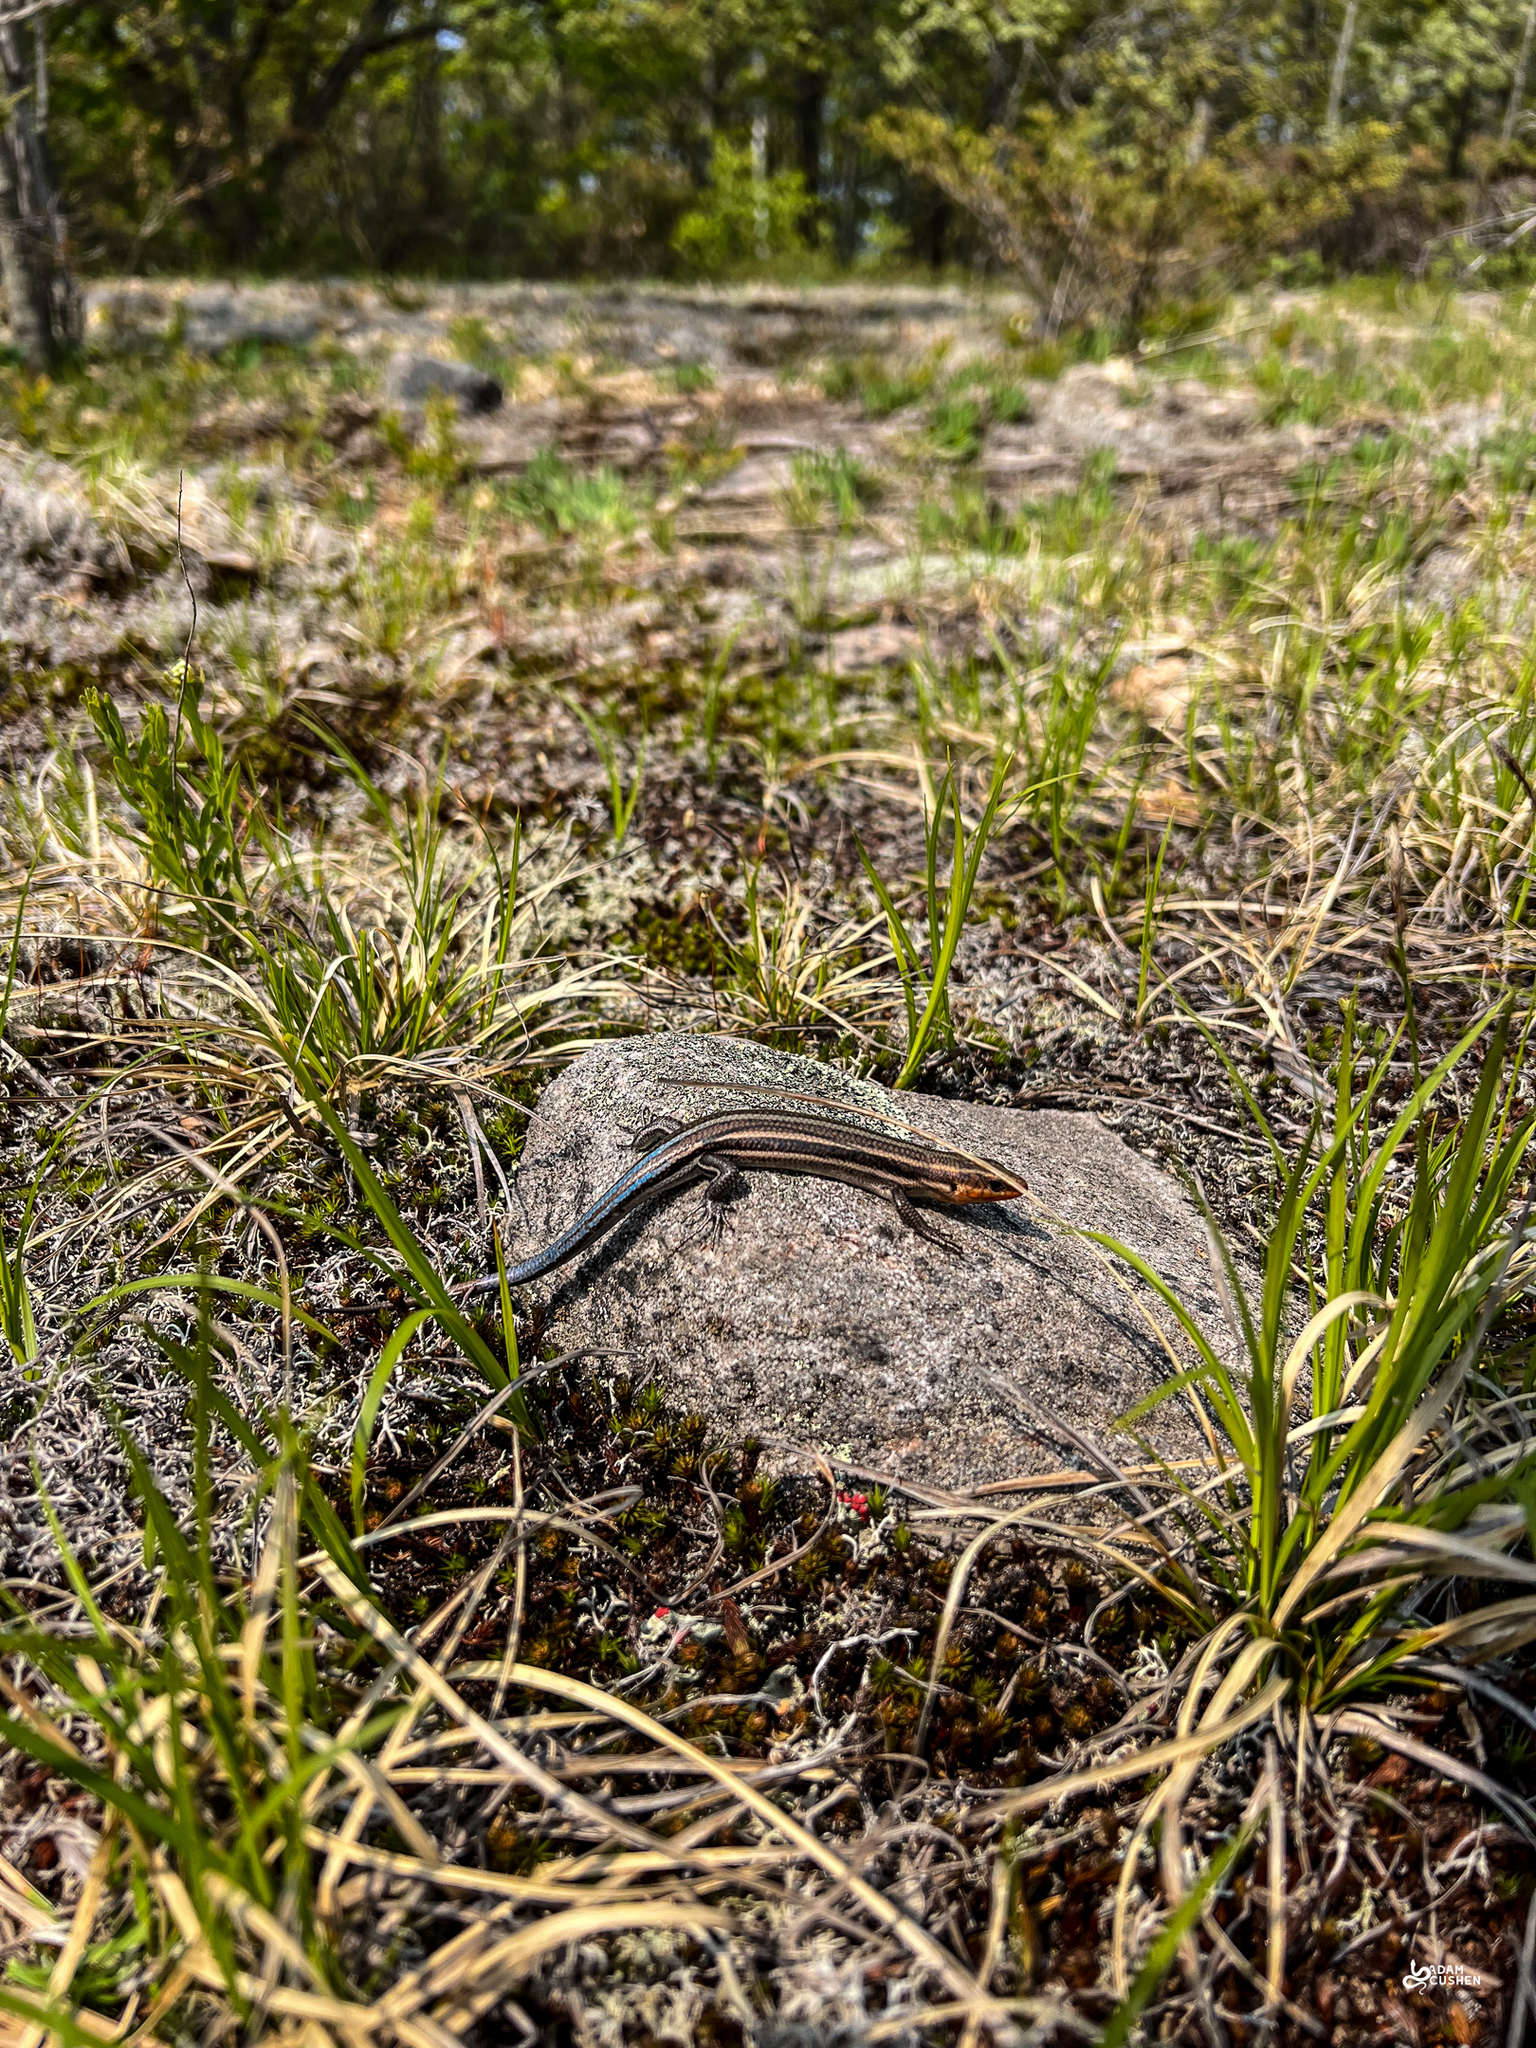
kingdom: Animalia
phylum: Chordata
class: Squamata
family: Scincidae
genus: Plestiodon
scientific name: Plestiodon fasciatus
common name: Five-lined skink
